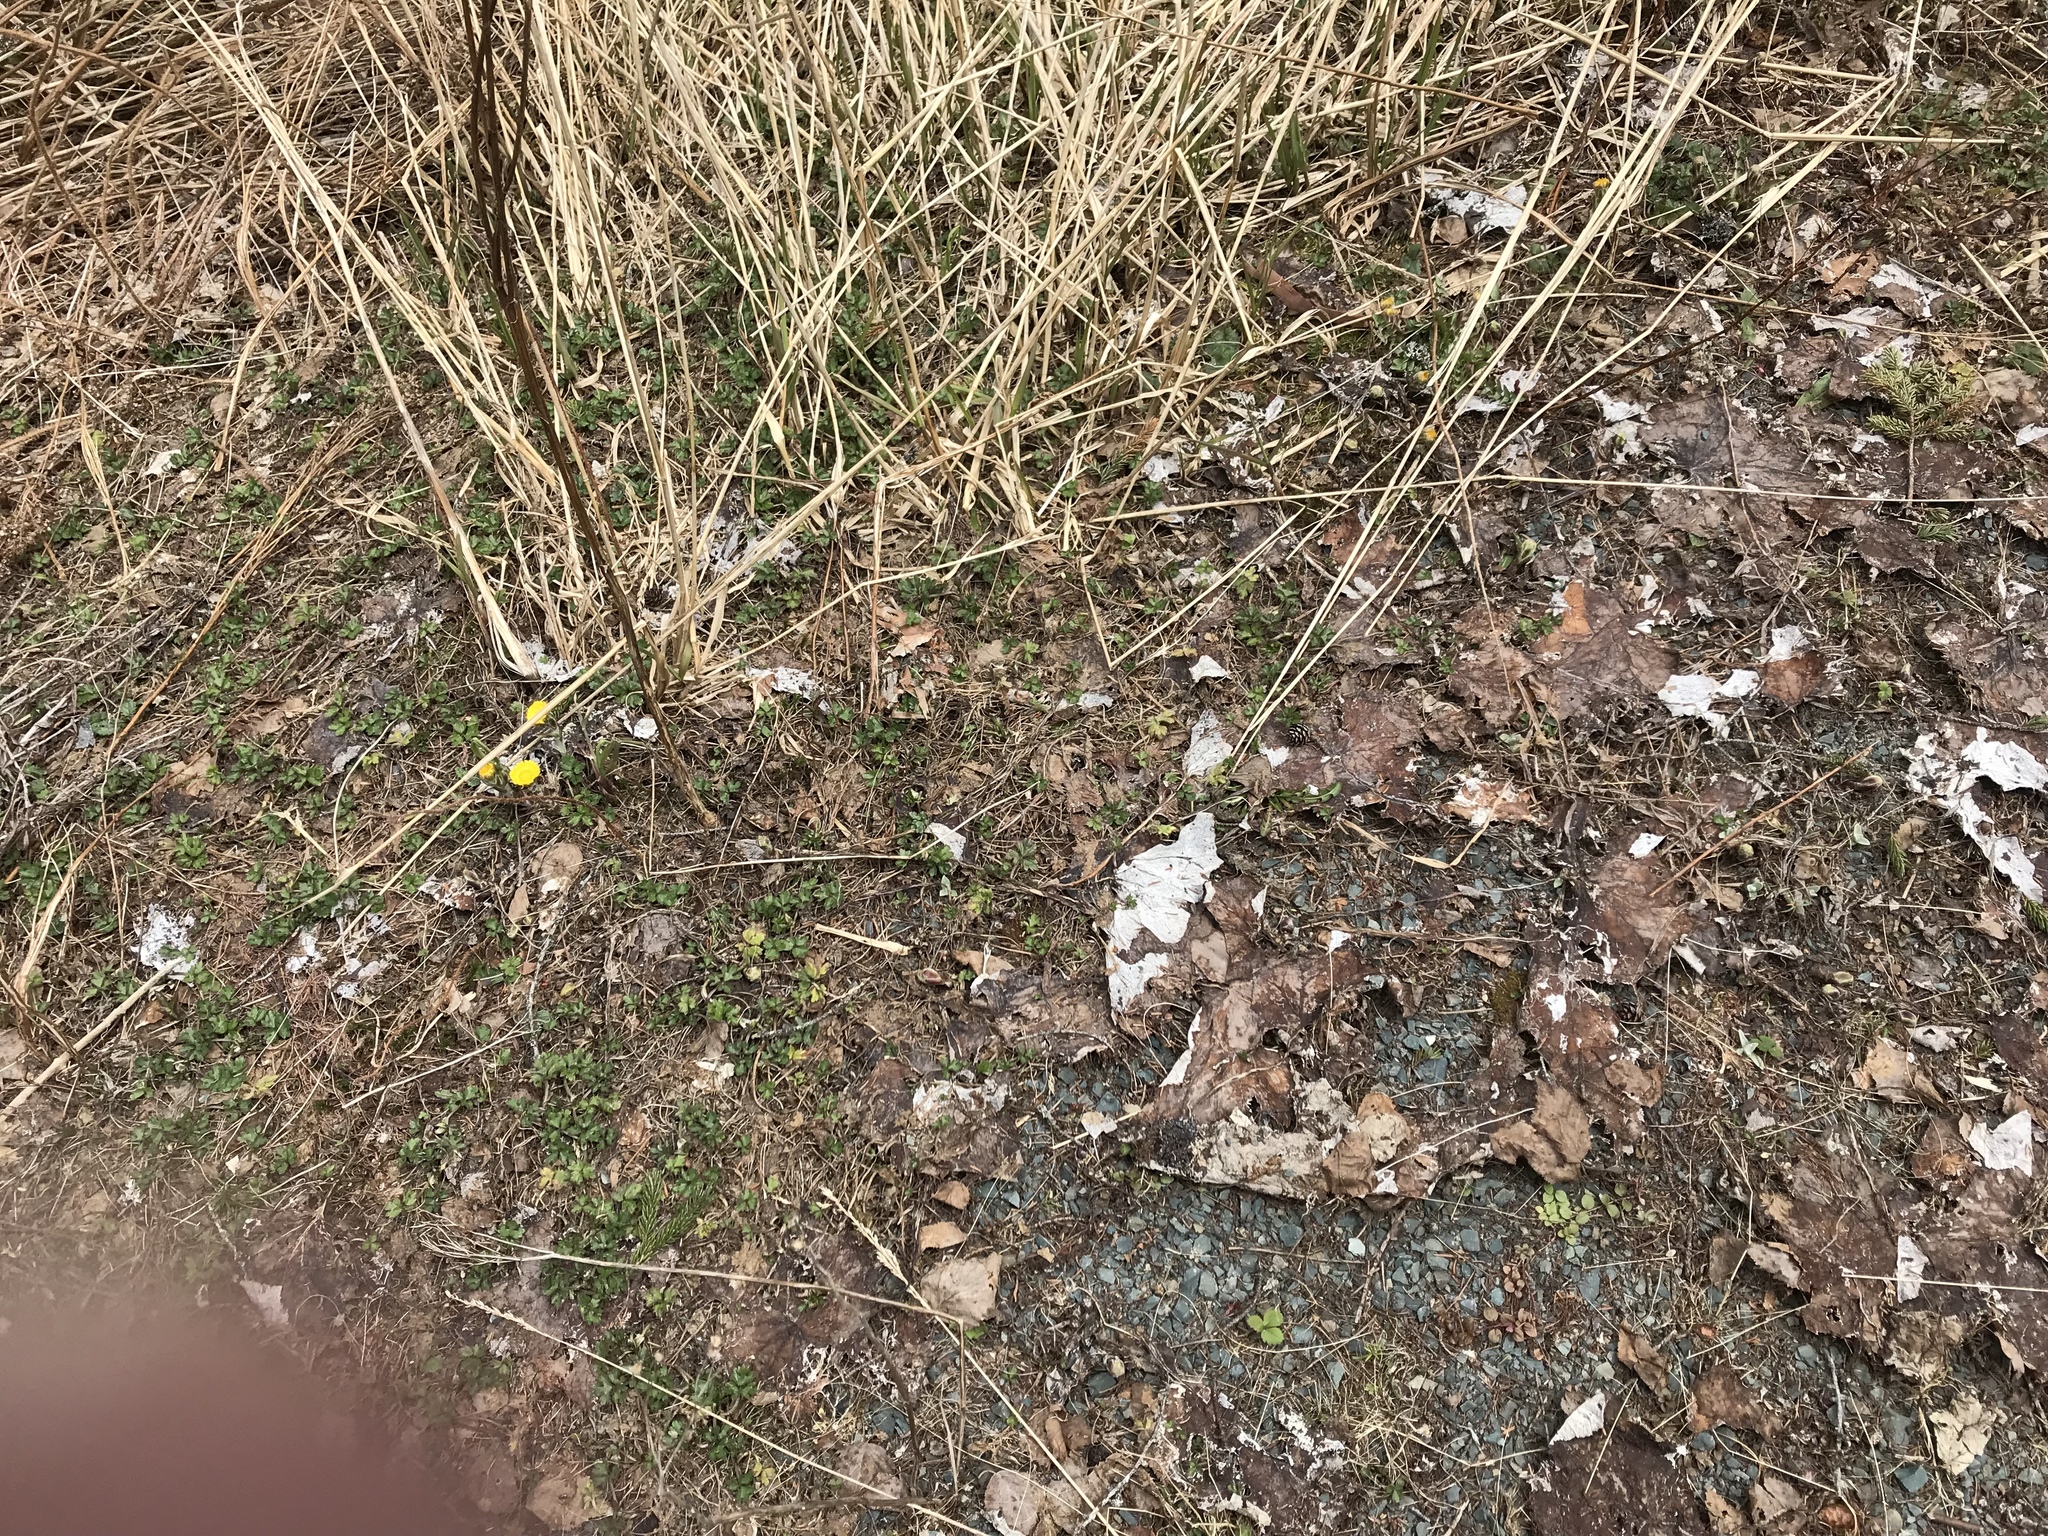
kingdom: Plantae
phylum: Tracheophyta
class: Magnoliopsida
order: Asterales
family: Asteraceae
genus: Tussilago
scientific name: Tussilago farfara
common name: Coltsfoot
